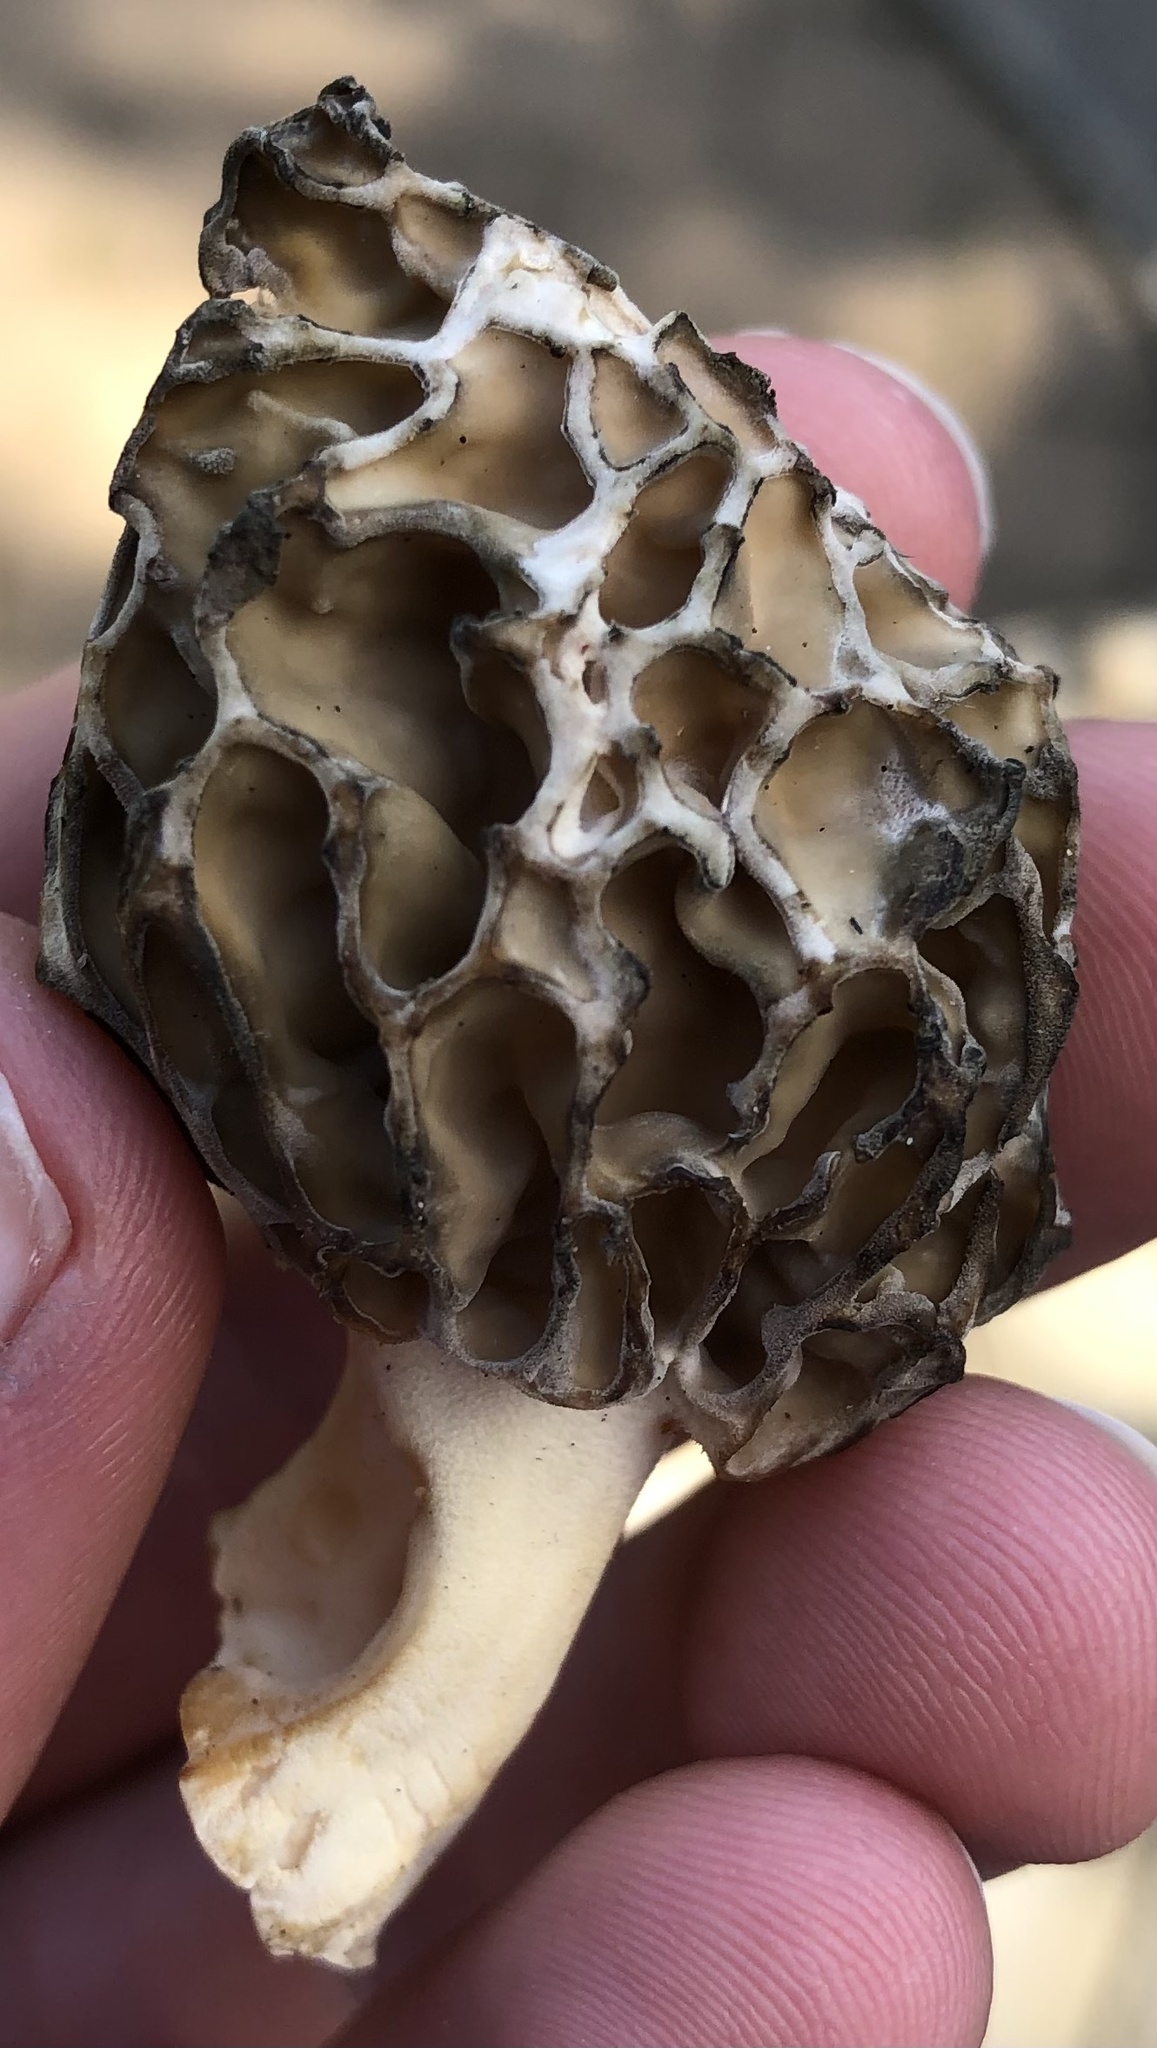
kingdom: Fungi
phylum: Ascomycota
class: Pezizomycetes
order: Pezizales
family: Morchellaceae
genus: Morchella
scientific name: Morchella americana
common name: White morel
